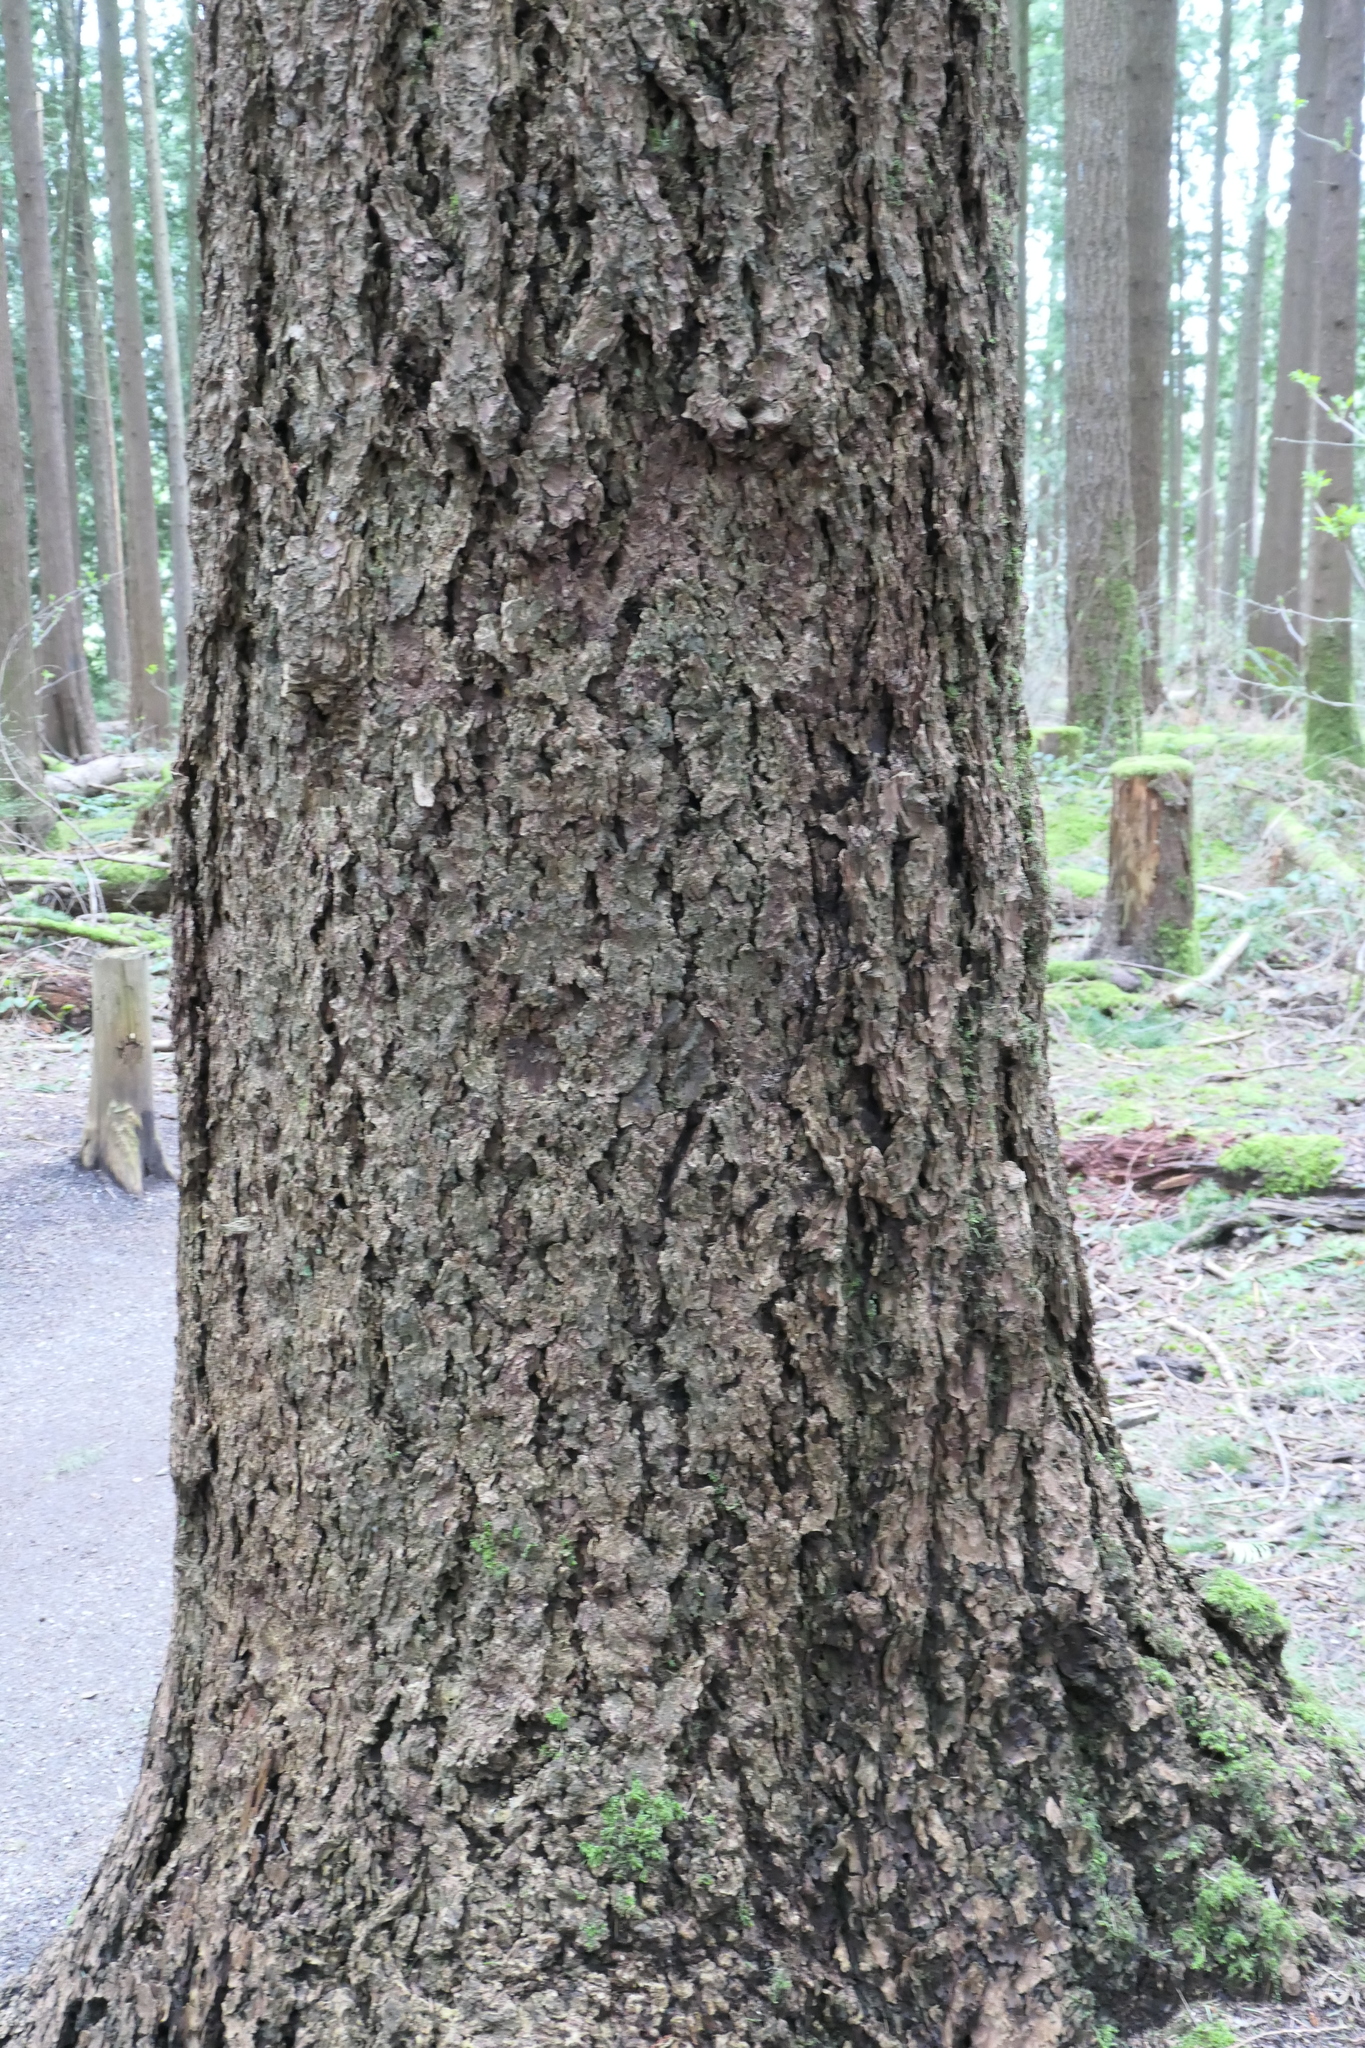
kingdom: Plantae
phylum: Tracheophyta
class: Pinopsida
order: Pinales
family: Pinaceae
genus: Pseudotsuga
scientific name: Pseudotsuga menziesii
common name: Douglas fir
